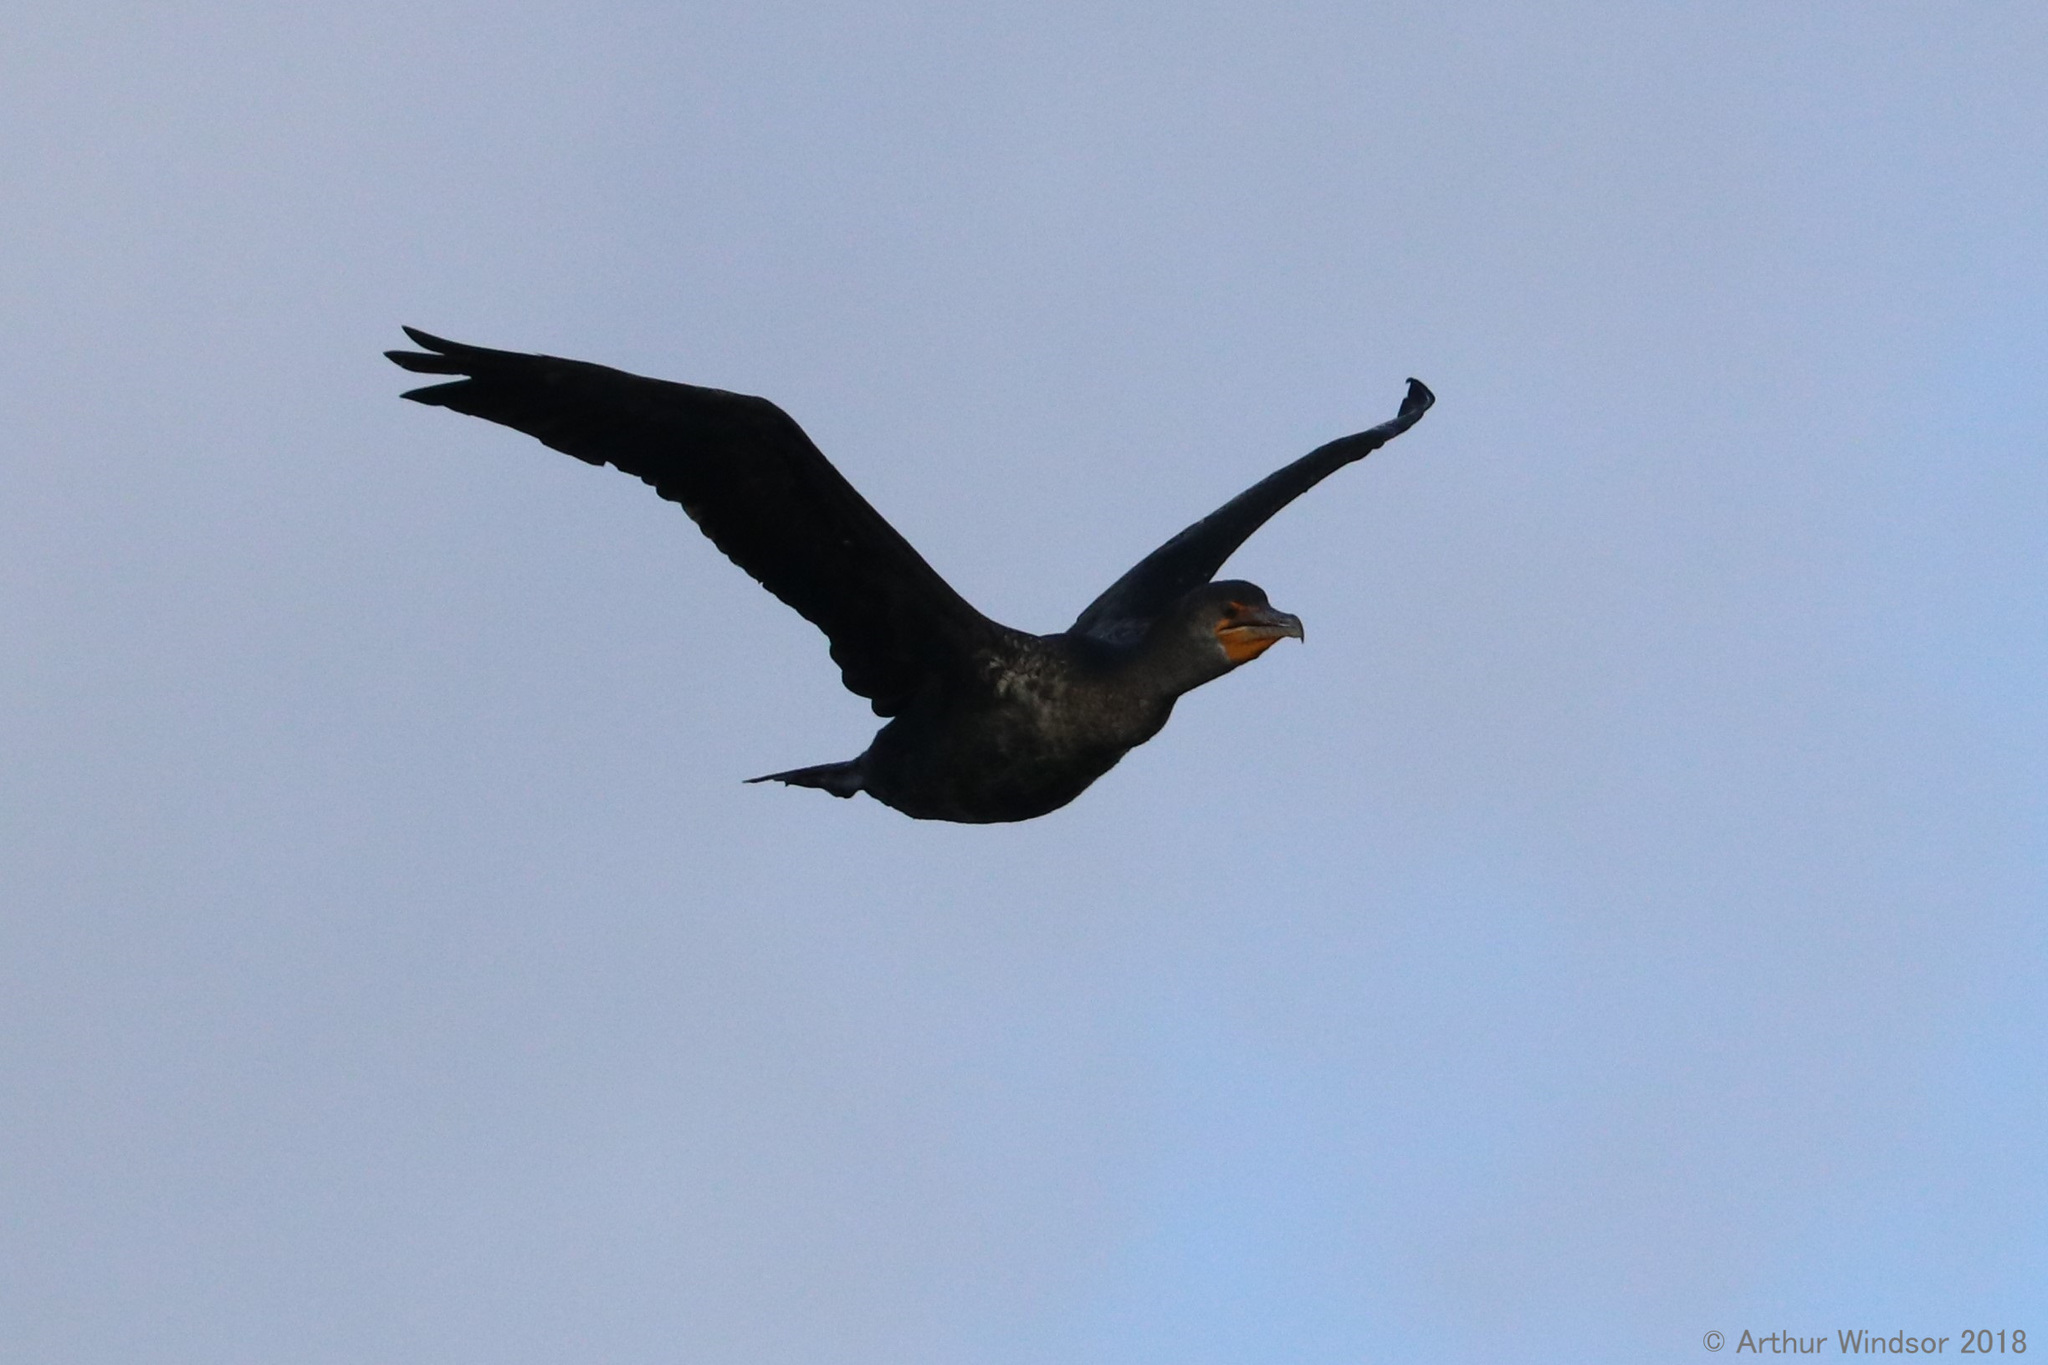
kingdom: Animalia
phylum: Chordata
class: Aves
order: Suliformes
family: Phalacrocoracidae
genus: Phalacrocorax
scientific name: Phalacrocorax auritus
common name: Double-crested cormorant
